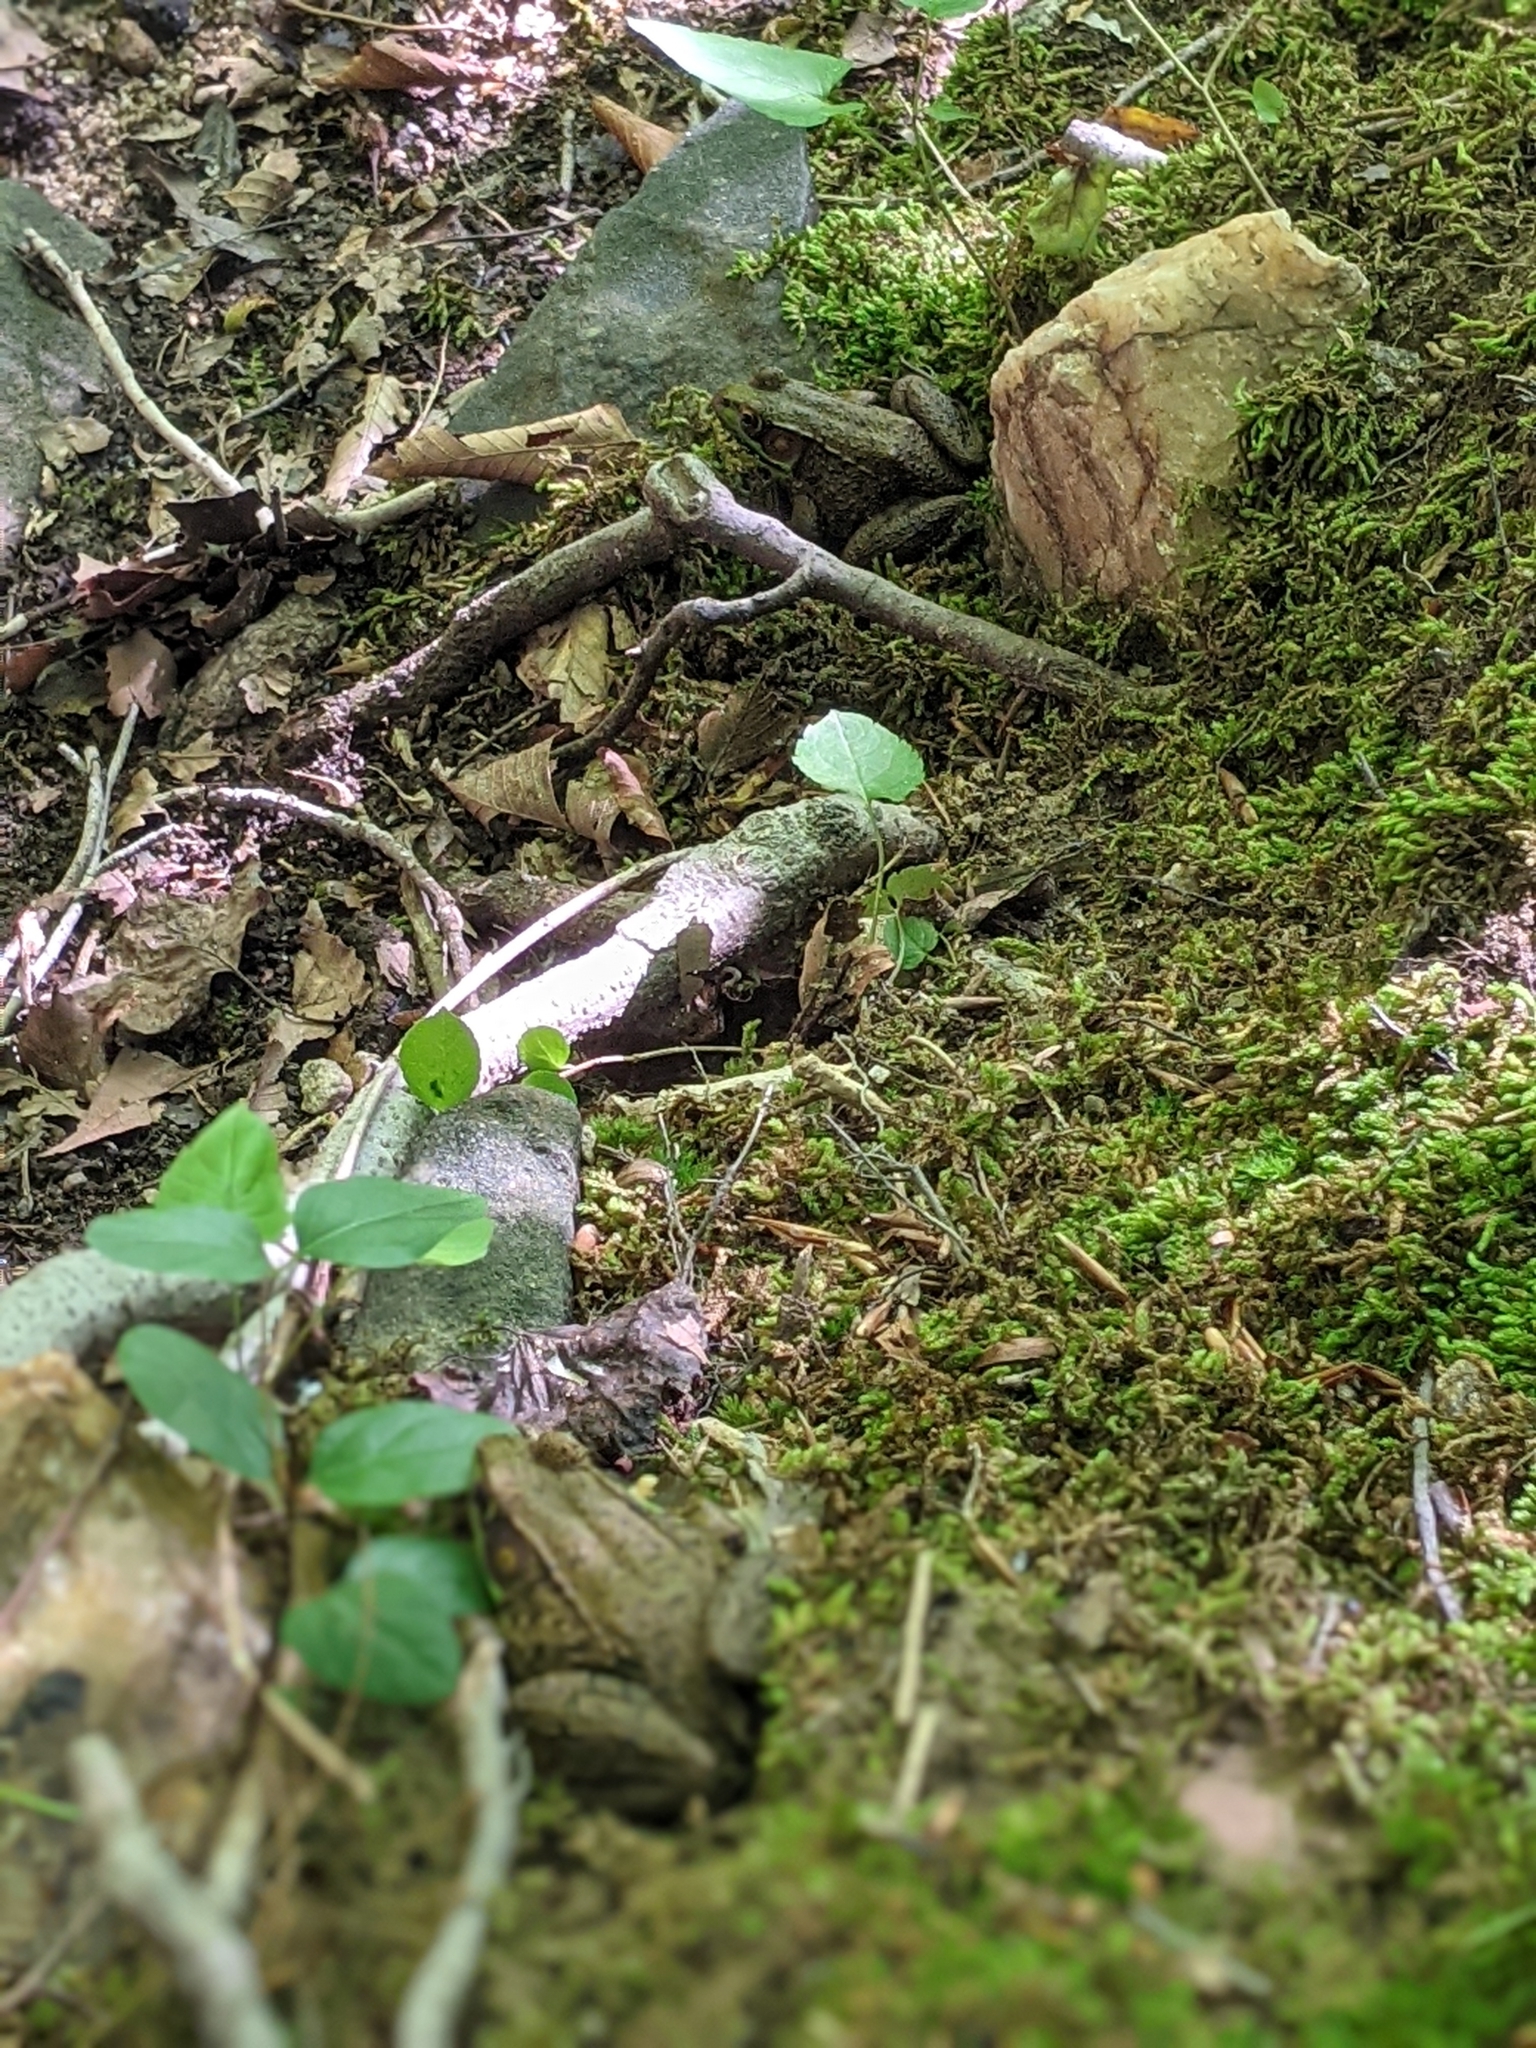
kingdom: Animalia
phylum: Chordata
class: Amphibia
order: Anura
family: Ranidae
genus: Lithobates
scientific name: Lithobates clamitans
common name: Green frog
